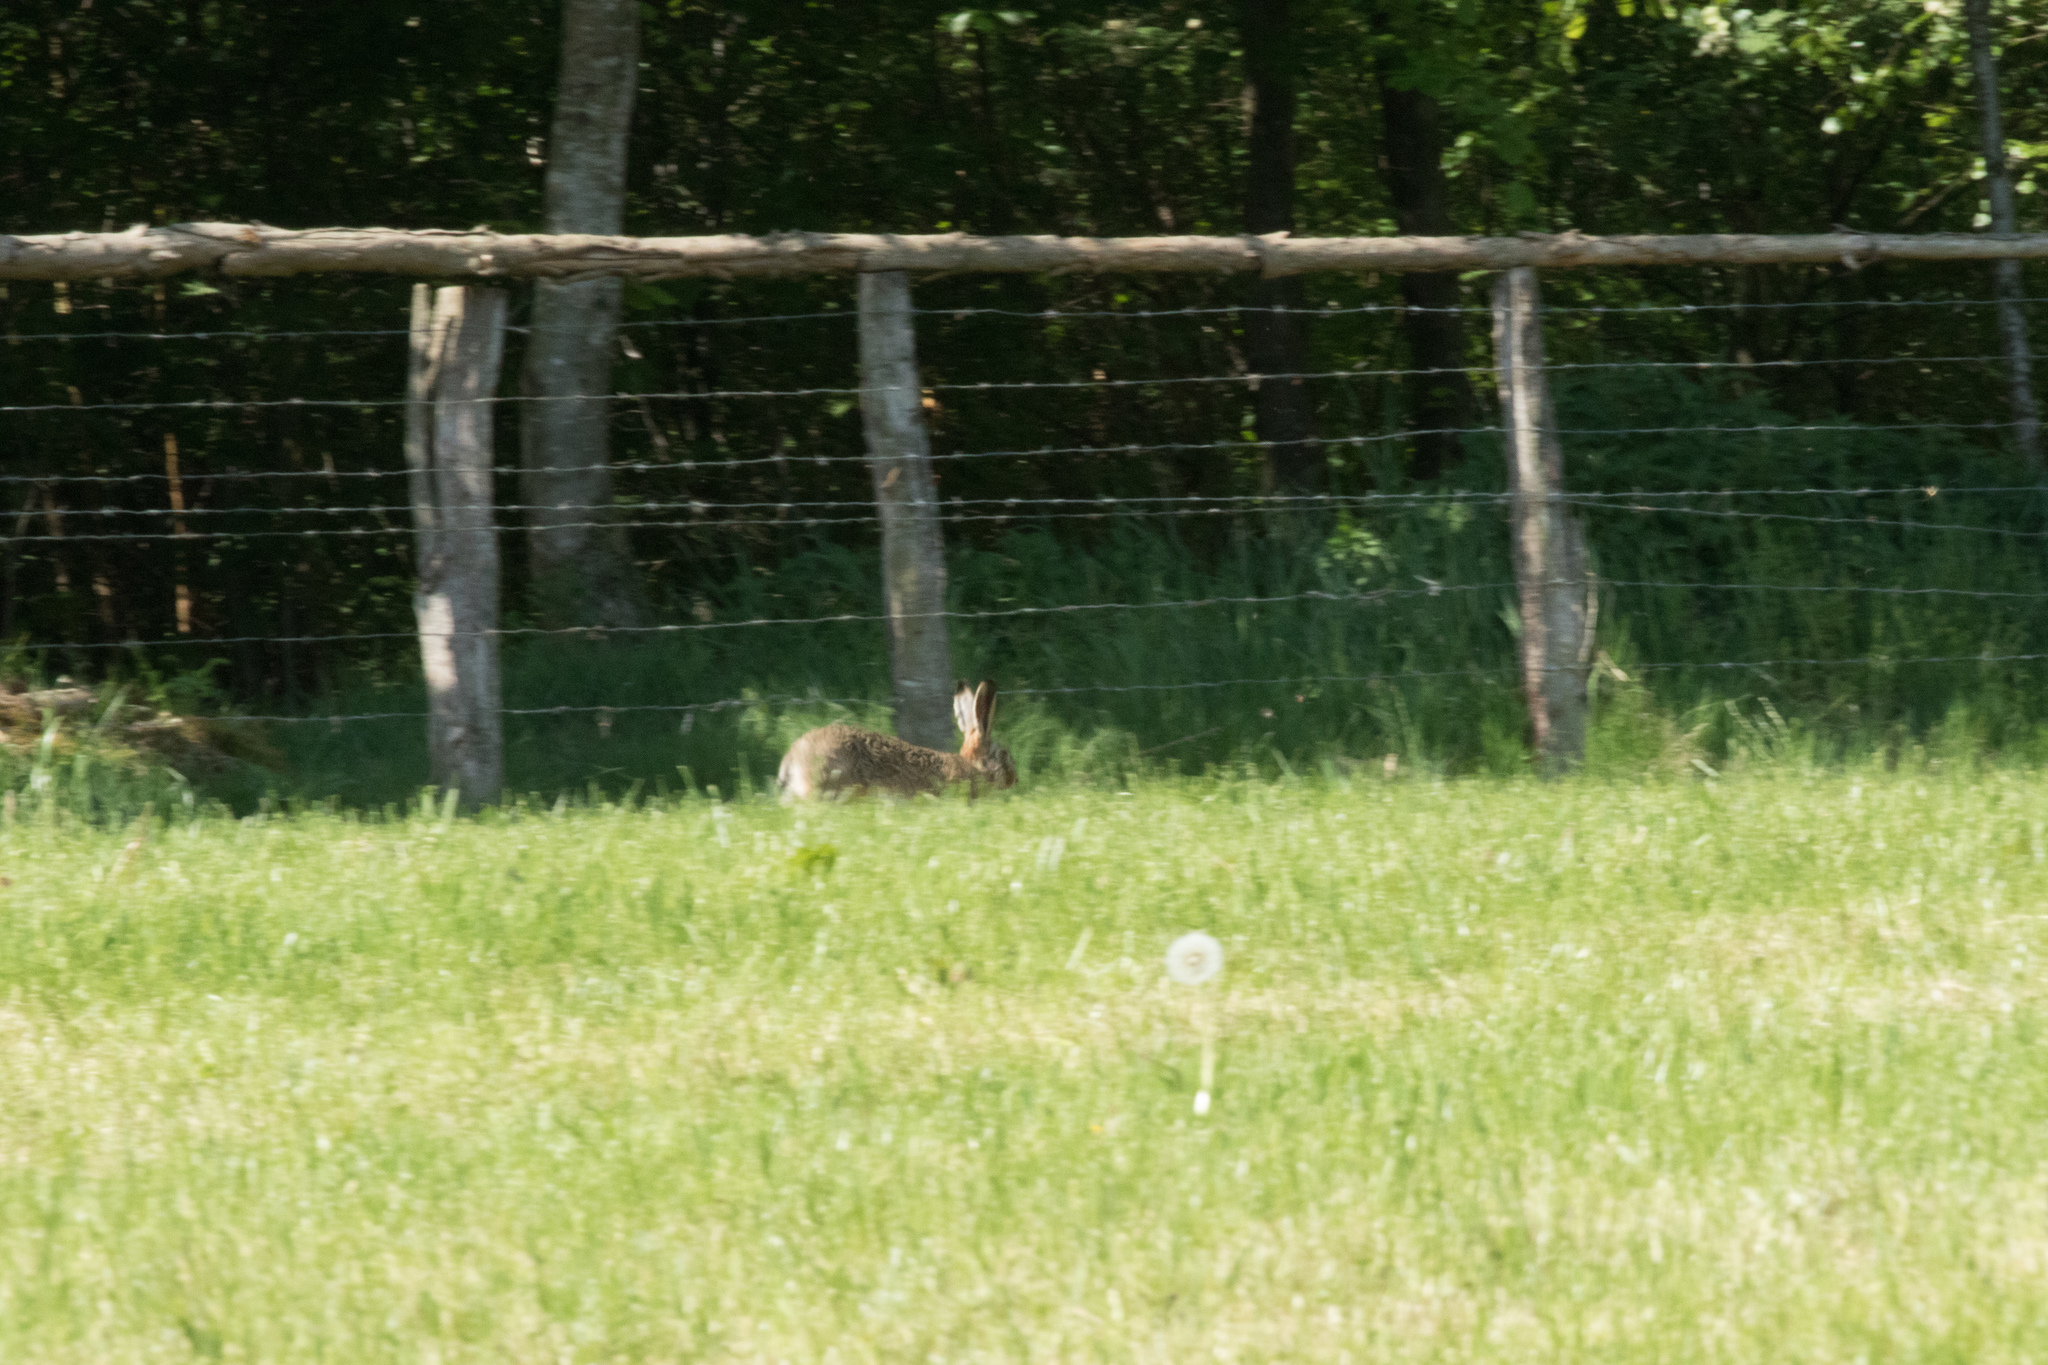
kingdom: Animalia
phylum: Chordata
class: Mammalia
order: Lagomorpha
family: Leporidae
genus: Lepus
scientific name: Lepus europaeus
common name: European hare
